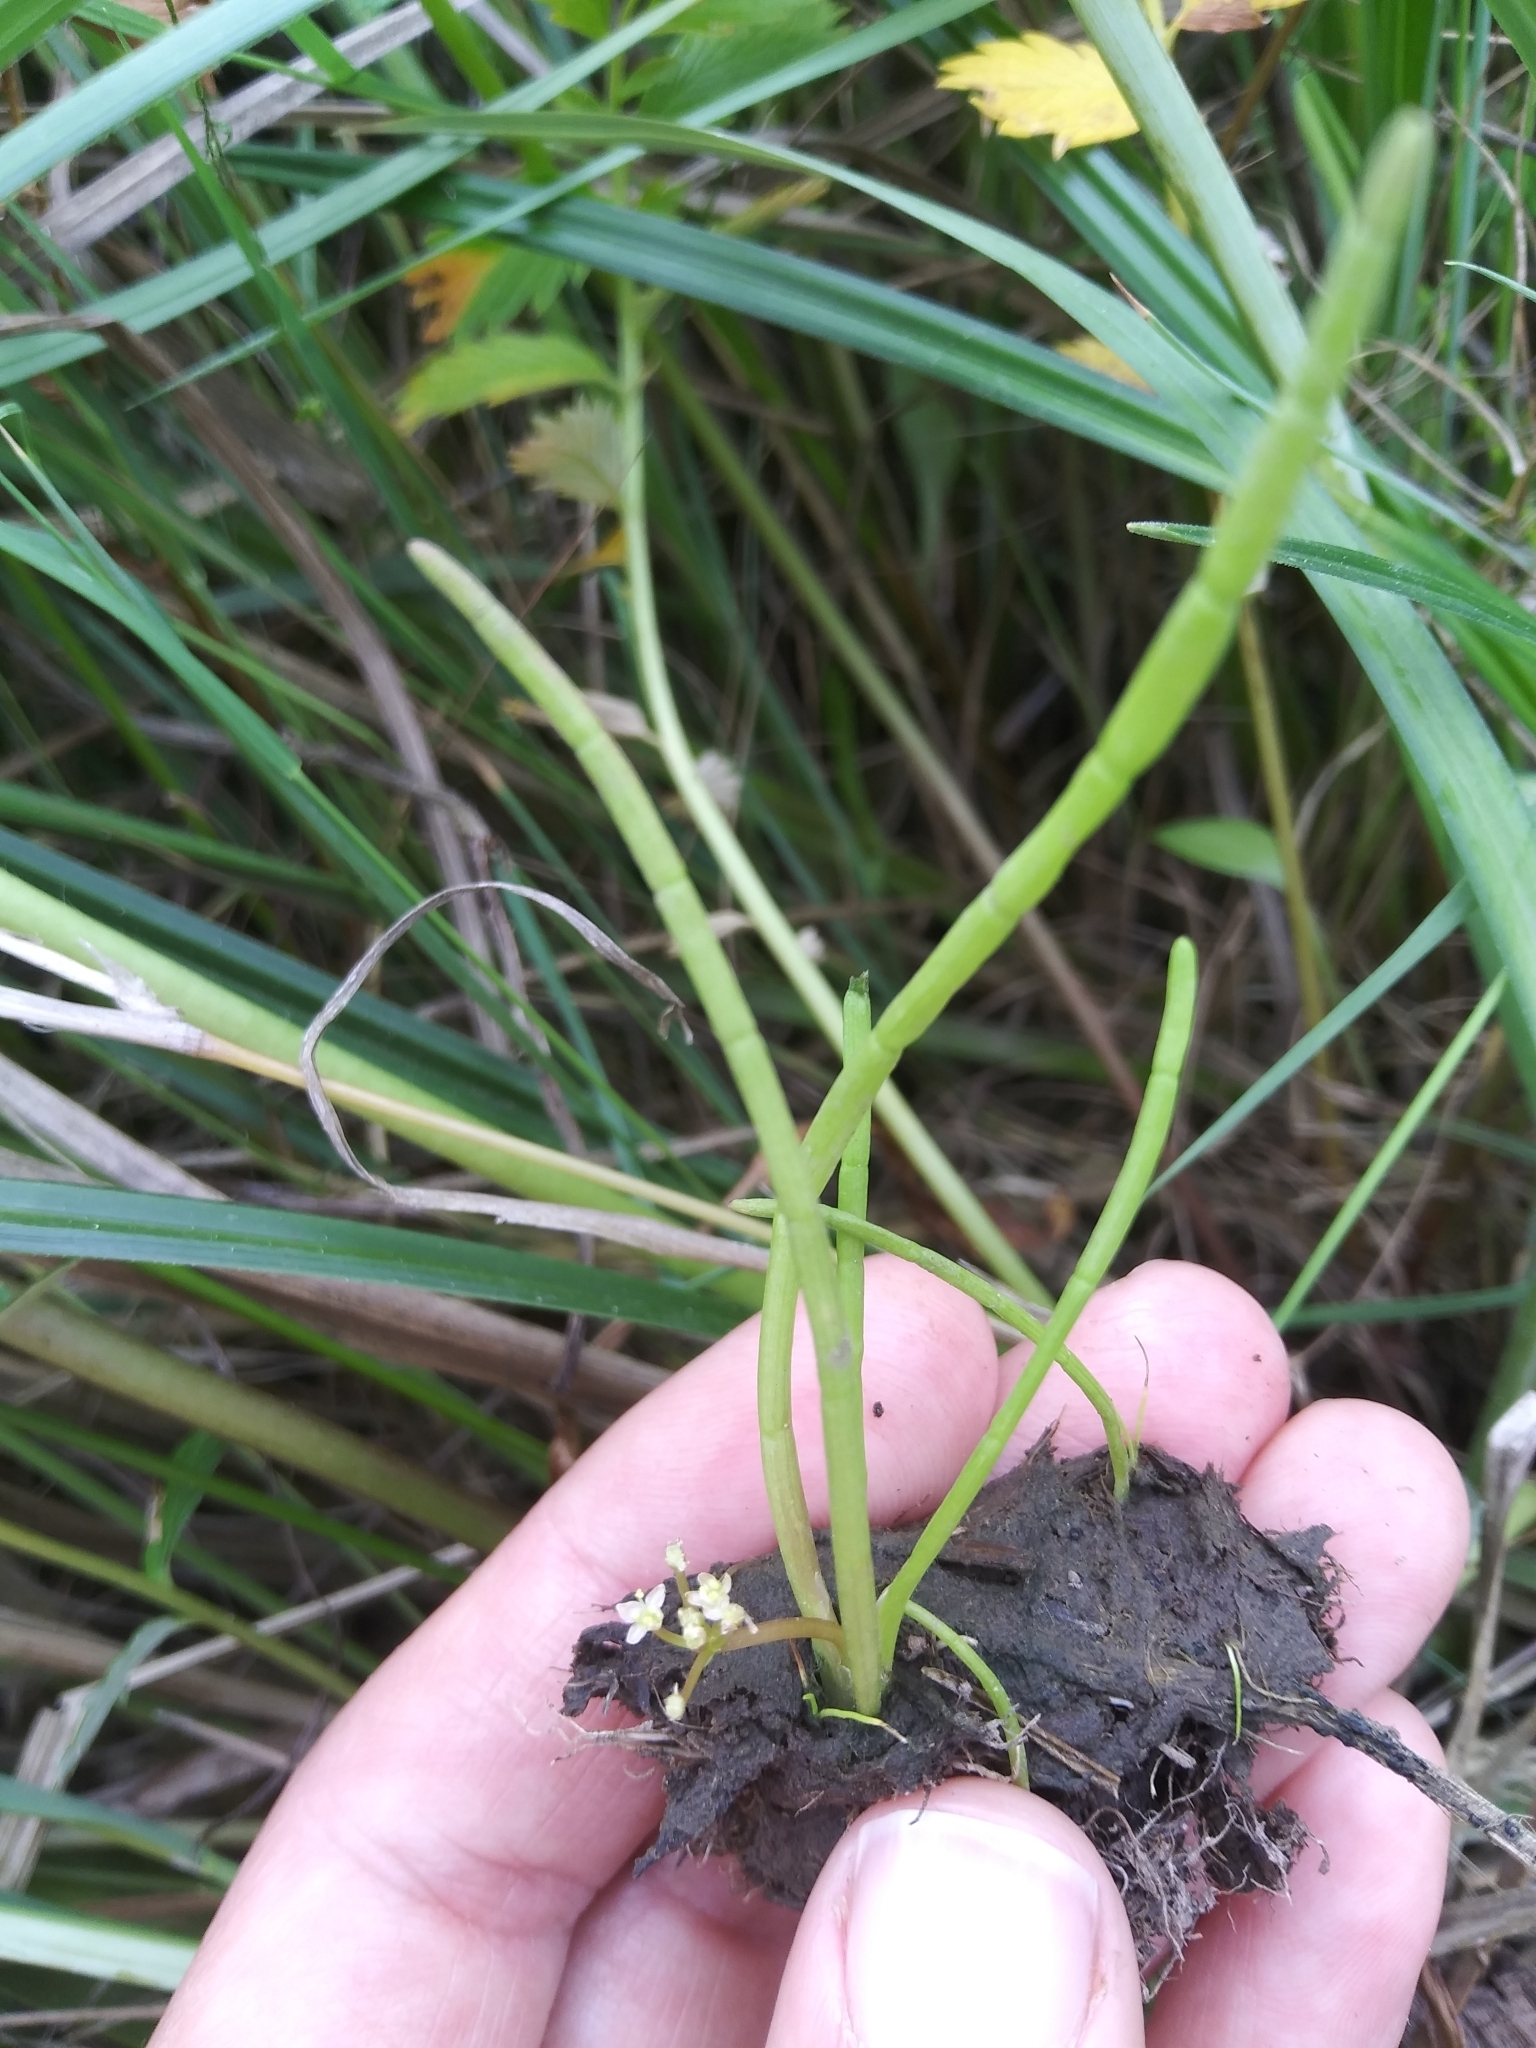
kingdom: Plantae
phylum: Tracheophyta
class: Magnoliopsida
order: Apiales
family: Apiaceae
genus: Lilaeopsis
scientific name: Lilaeopsis occidentalis
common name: Western grasswort
